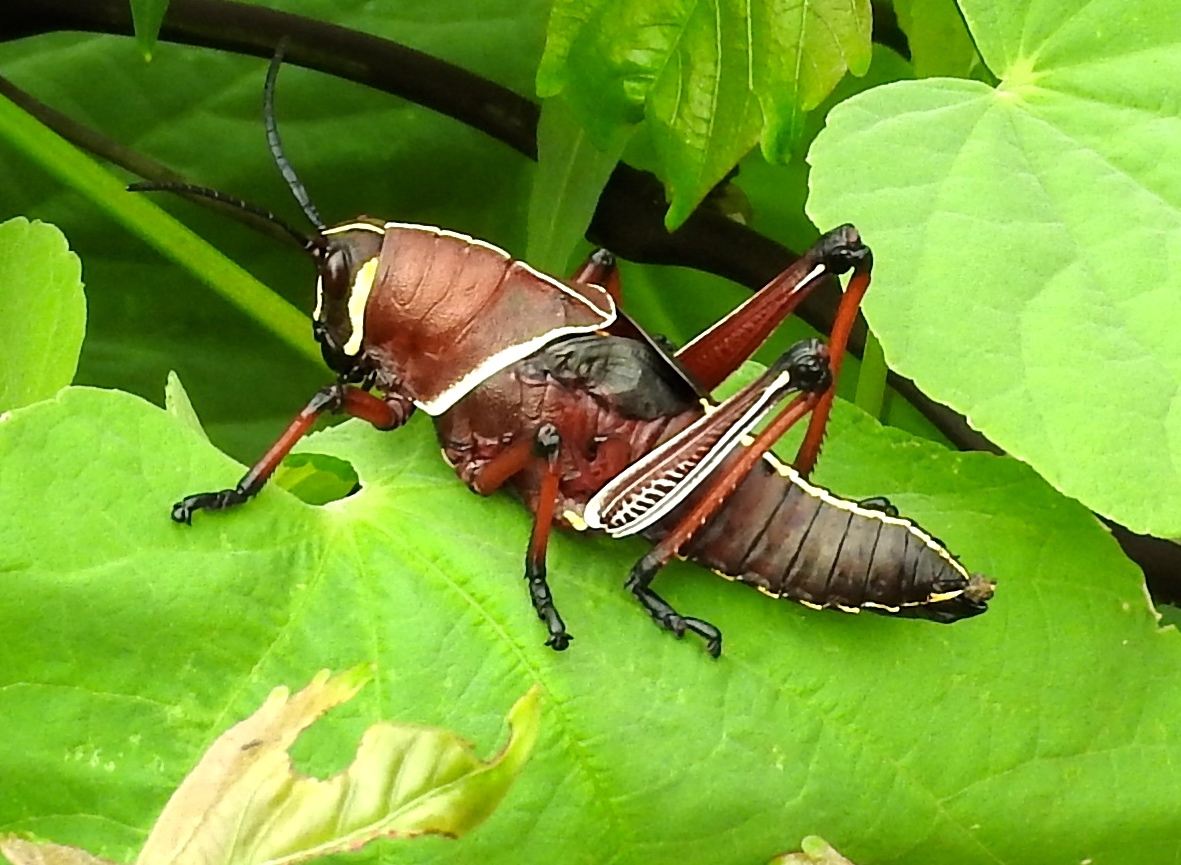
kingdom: Animalia
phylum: Arthropoda
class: Insecta
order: Orthoptera
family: Romaleidae
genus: Romalea
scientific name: Romalea
